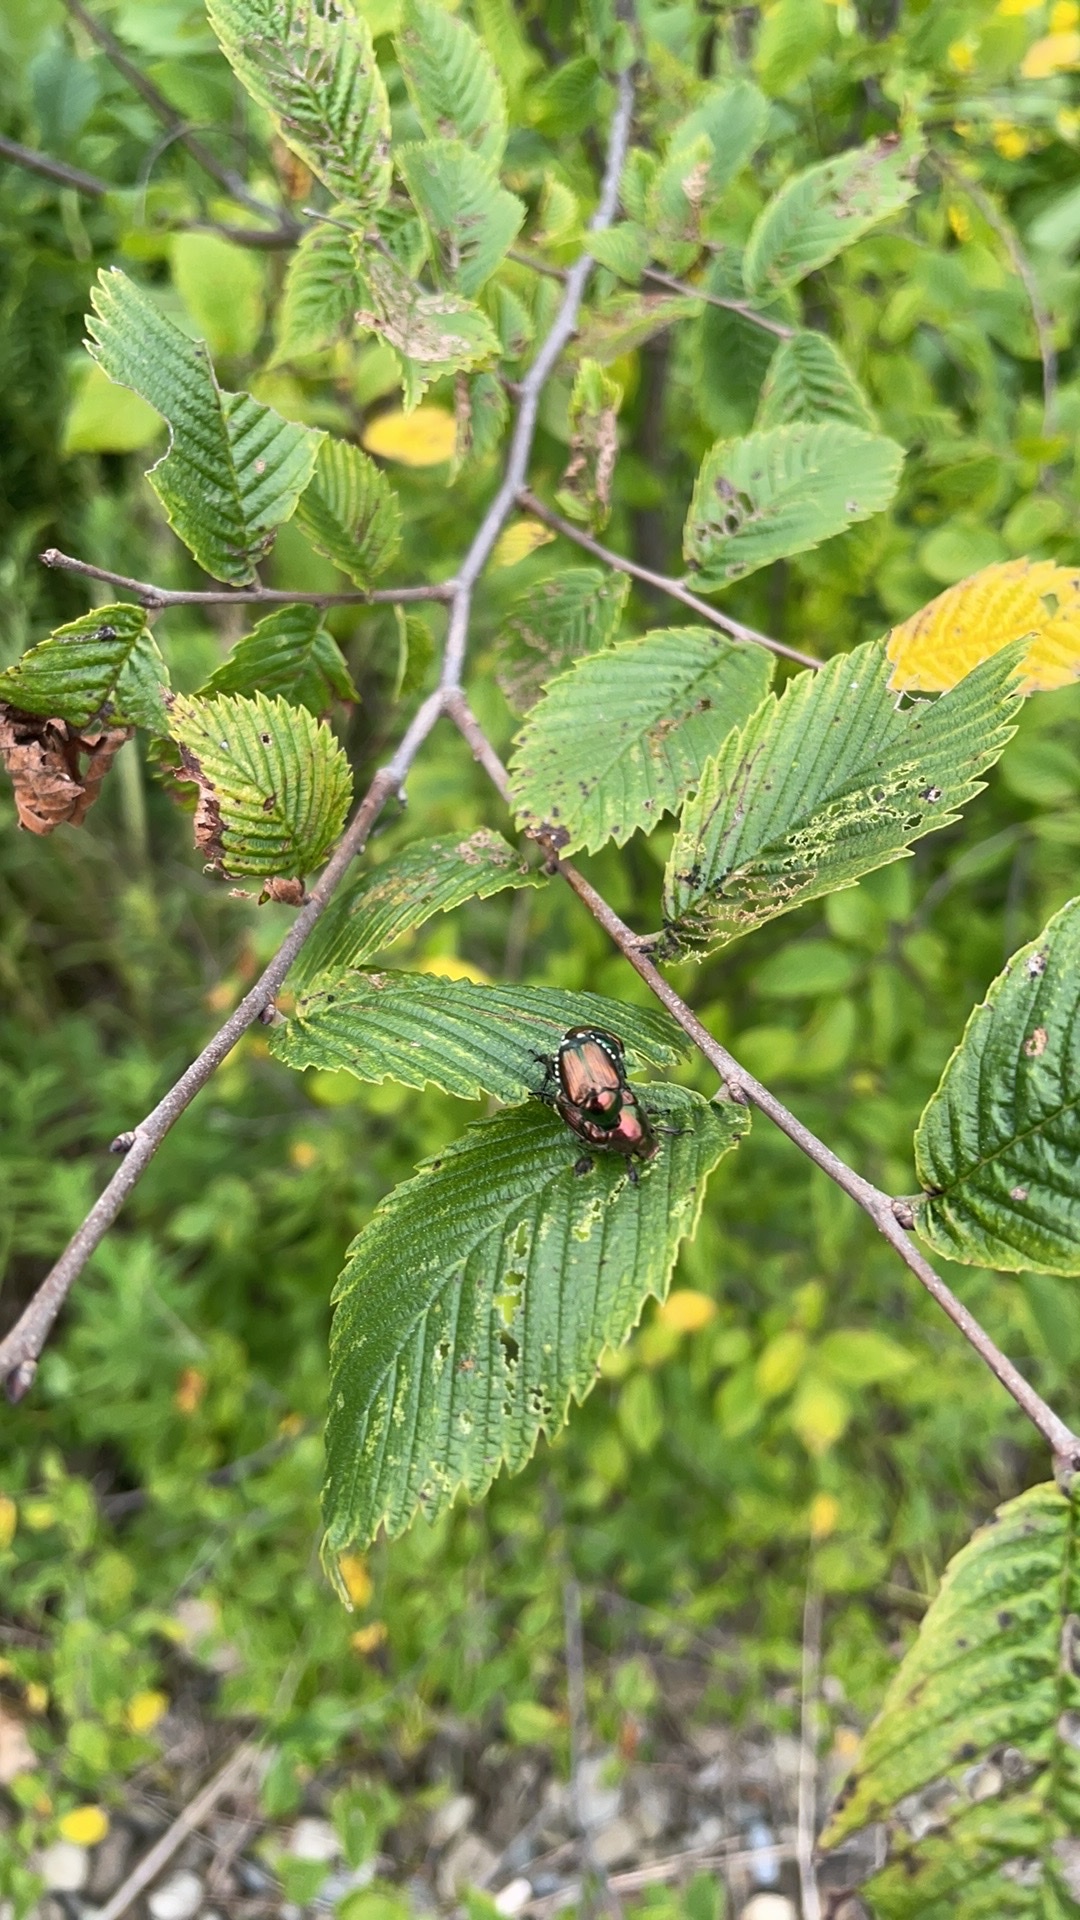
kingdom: Animalia
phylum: Arthropoda
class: Insecta
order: Coleoptera
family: Scarabaeidae
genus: Popillia
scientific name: Popillia japonica
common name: Japanese beetle
